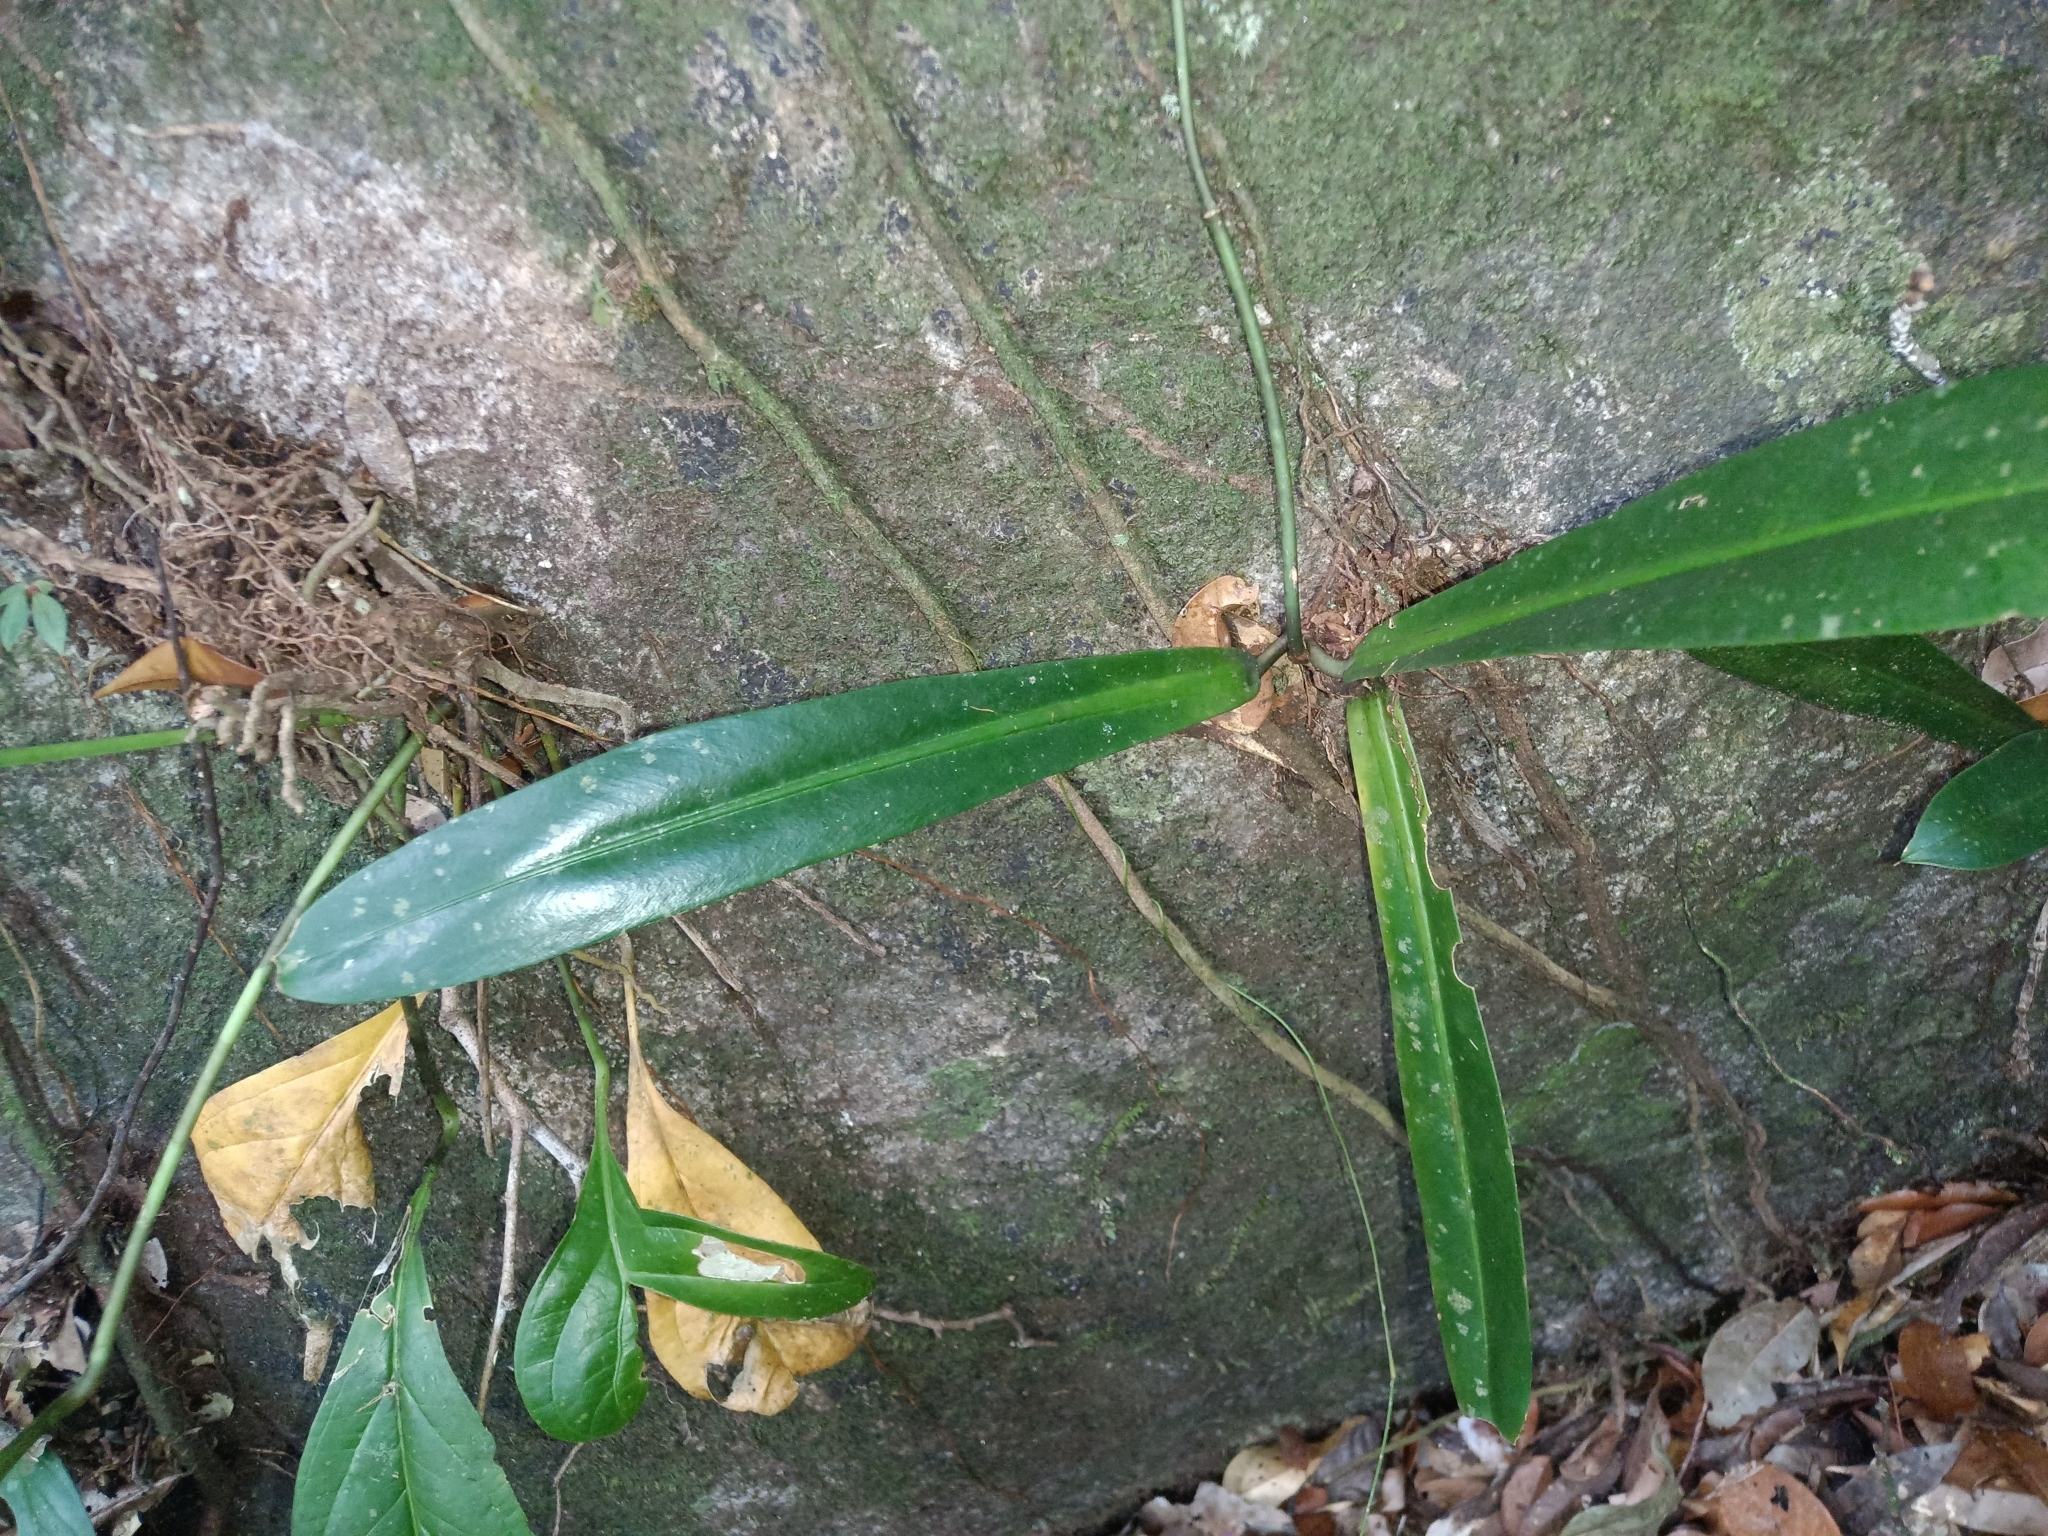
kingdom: Plantae
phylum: Tracheophyta
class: Liliopsida
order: Alismatales
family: Araceae
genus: Philodendron
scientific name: Philodendron linnaei
